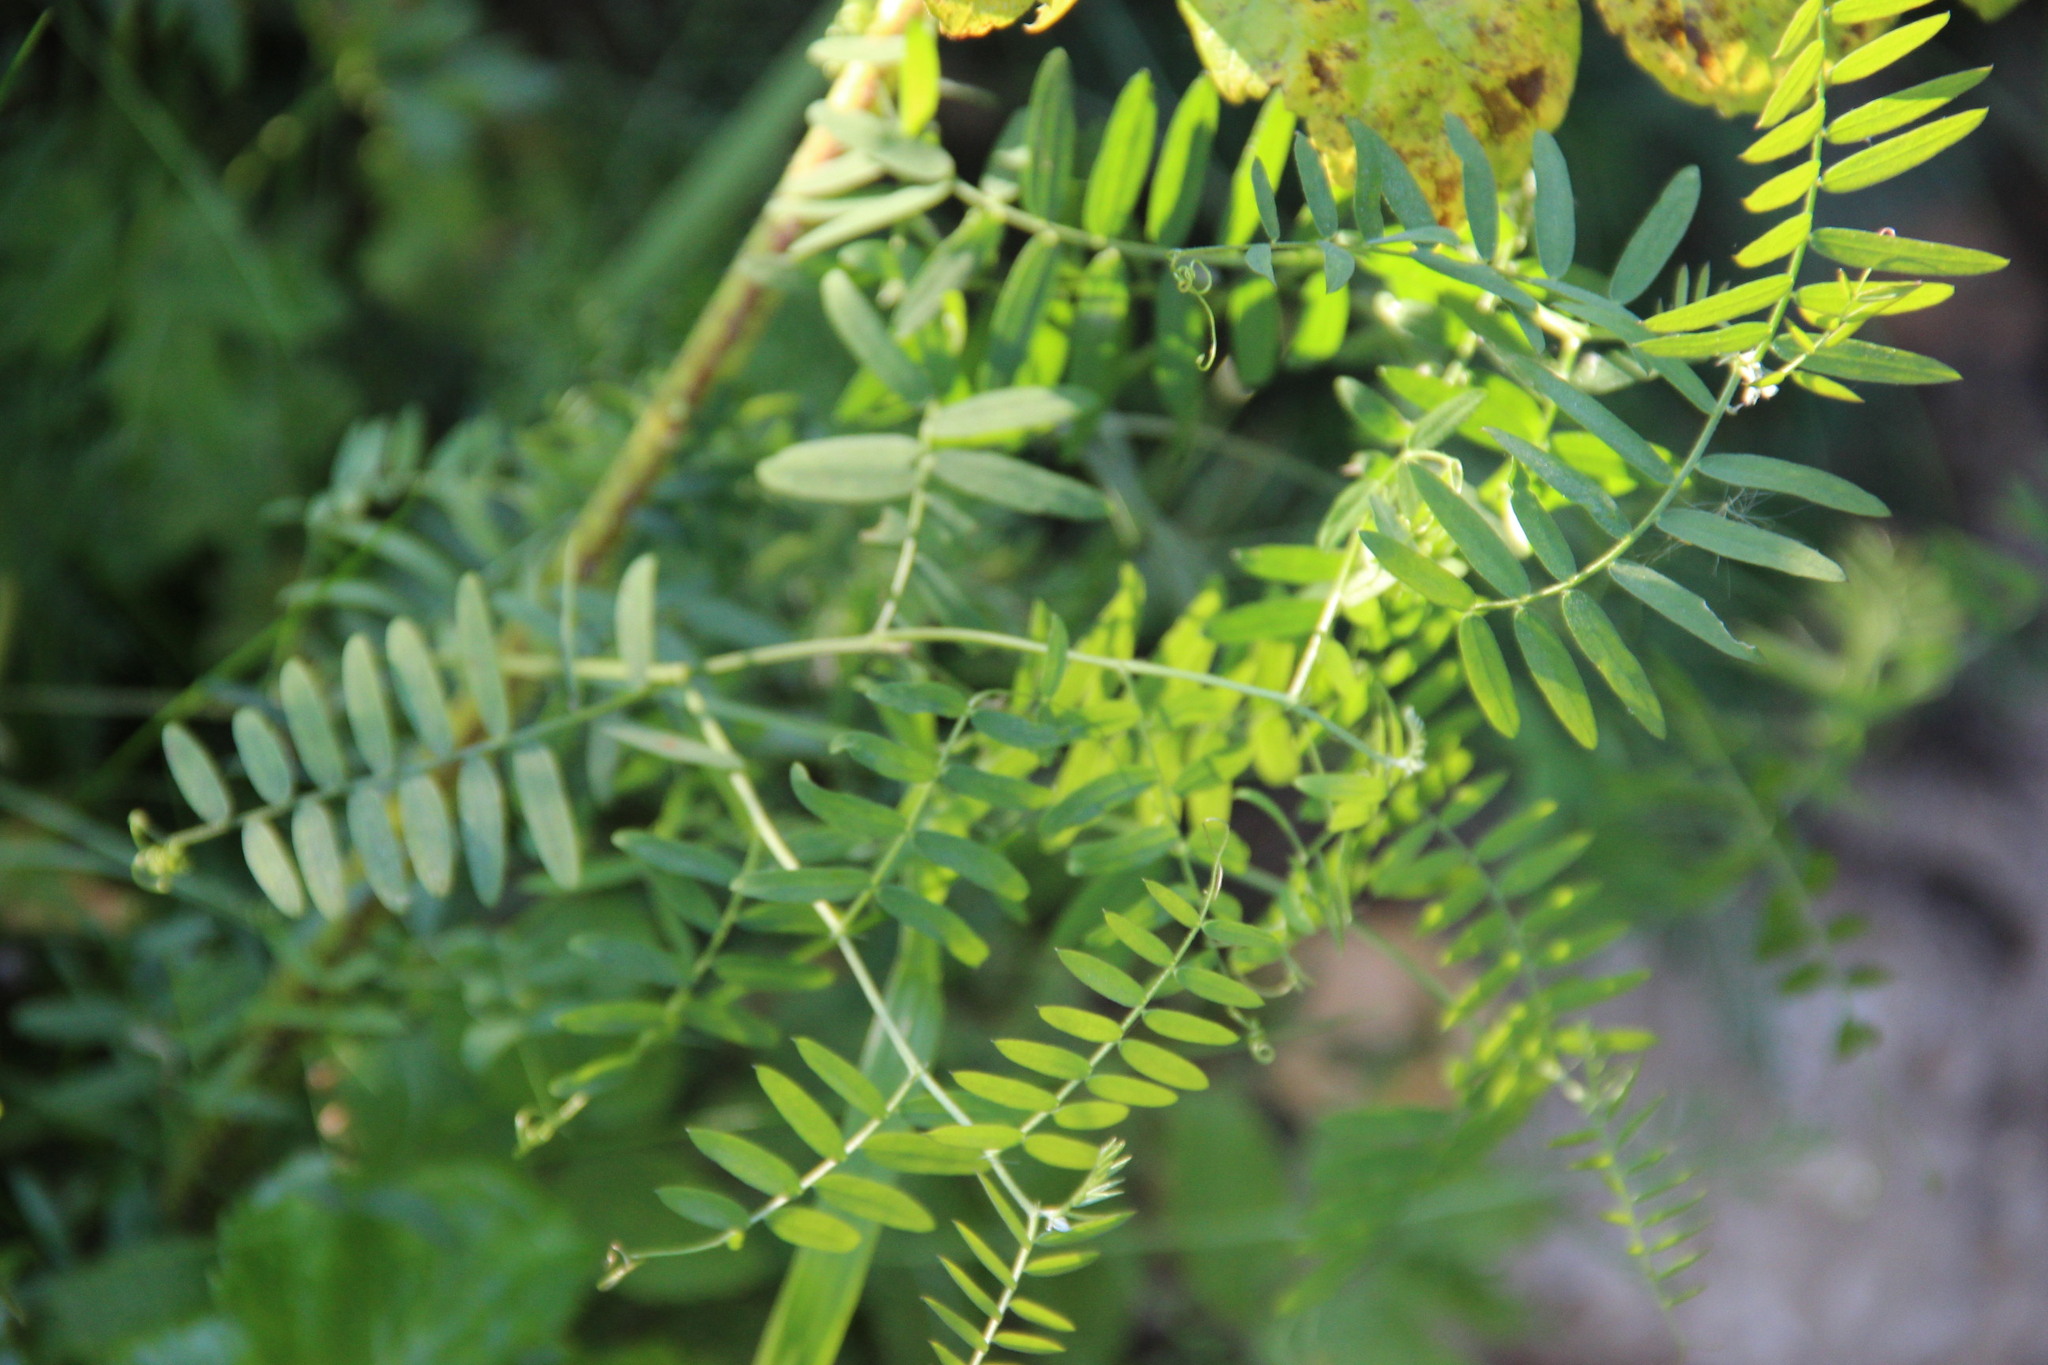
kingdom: Plantae
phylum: Tracheophyta
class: Magnoliopsida
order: Fabales
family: Fabaceae
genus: Vicia
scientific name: Vicia cracca
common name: Bird vetch
